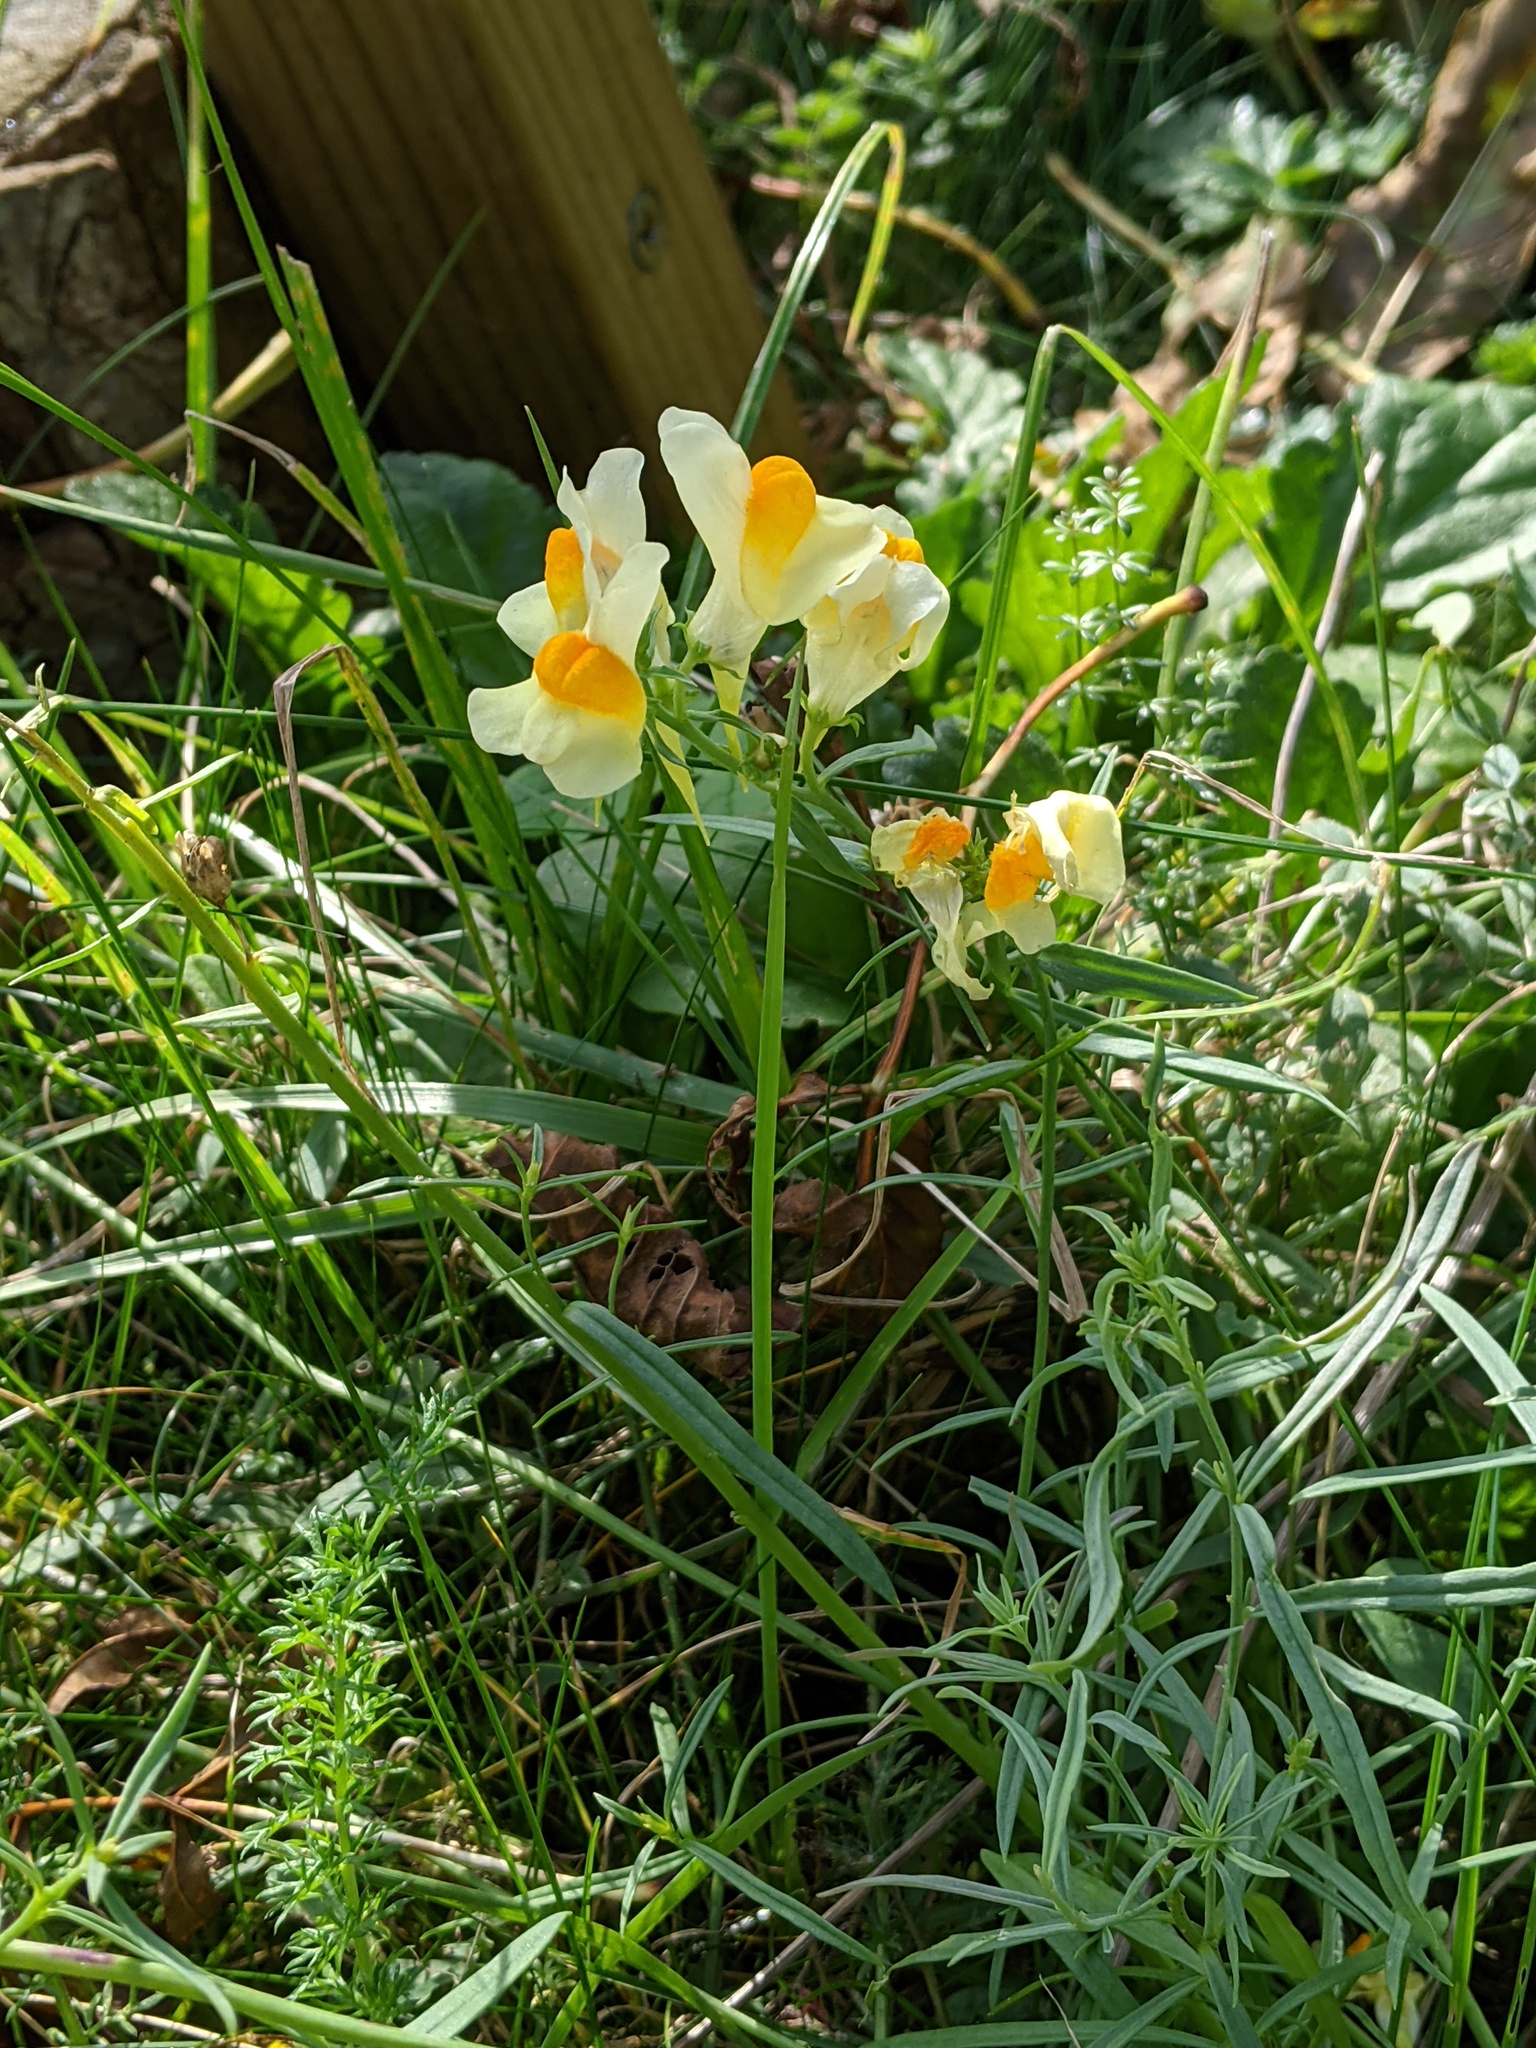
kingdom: Plantae
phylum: Tracheophyta
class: Magnoliopsida
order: Lamiales
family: Plantaginaceae
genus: Linaria
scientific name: Linaria vulgaris
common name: Butter and eggs
